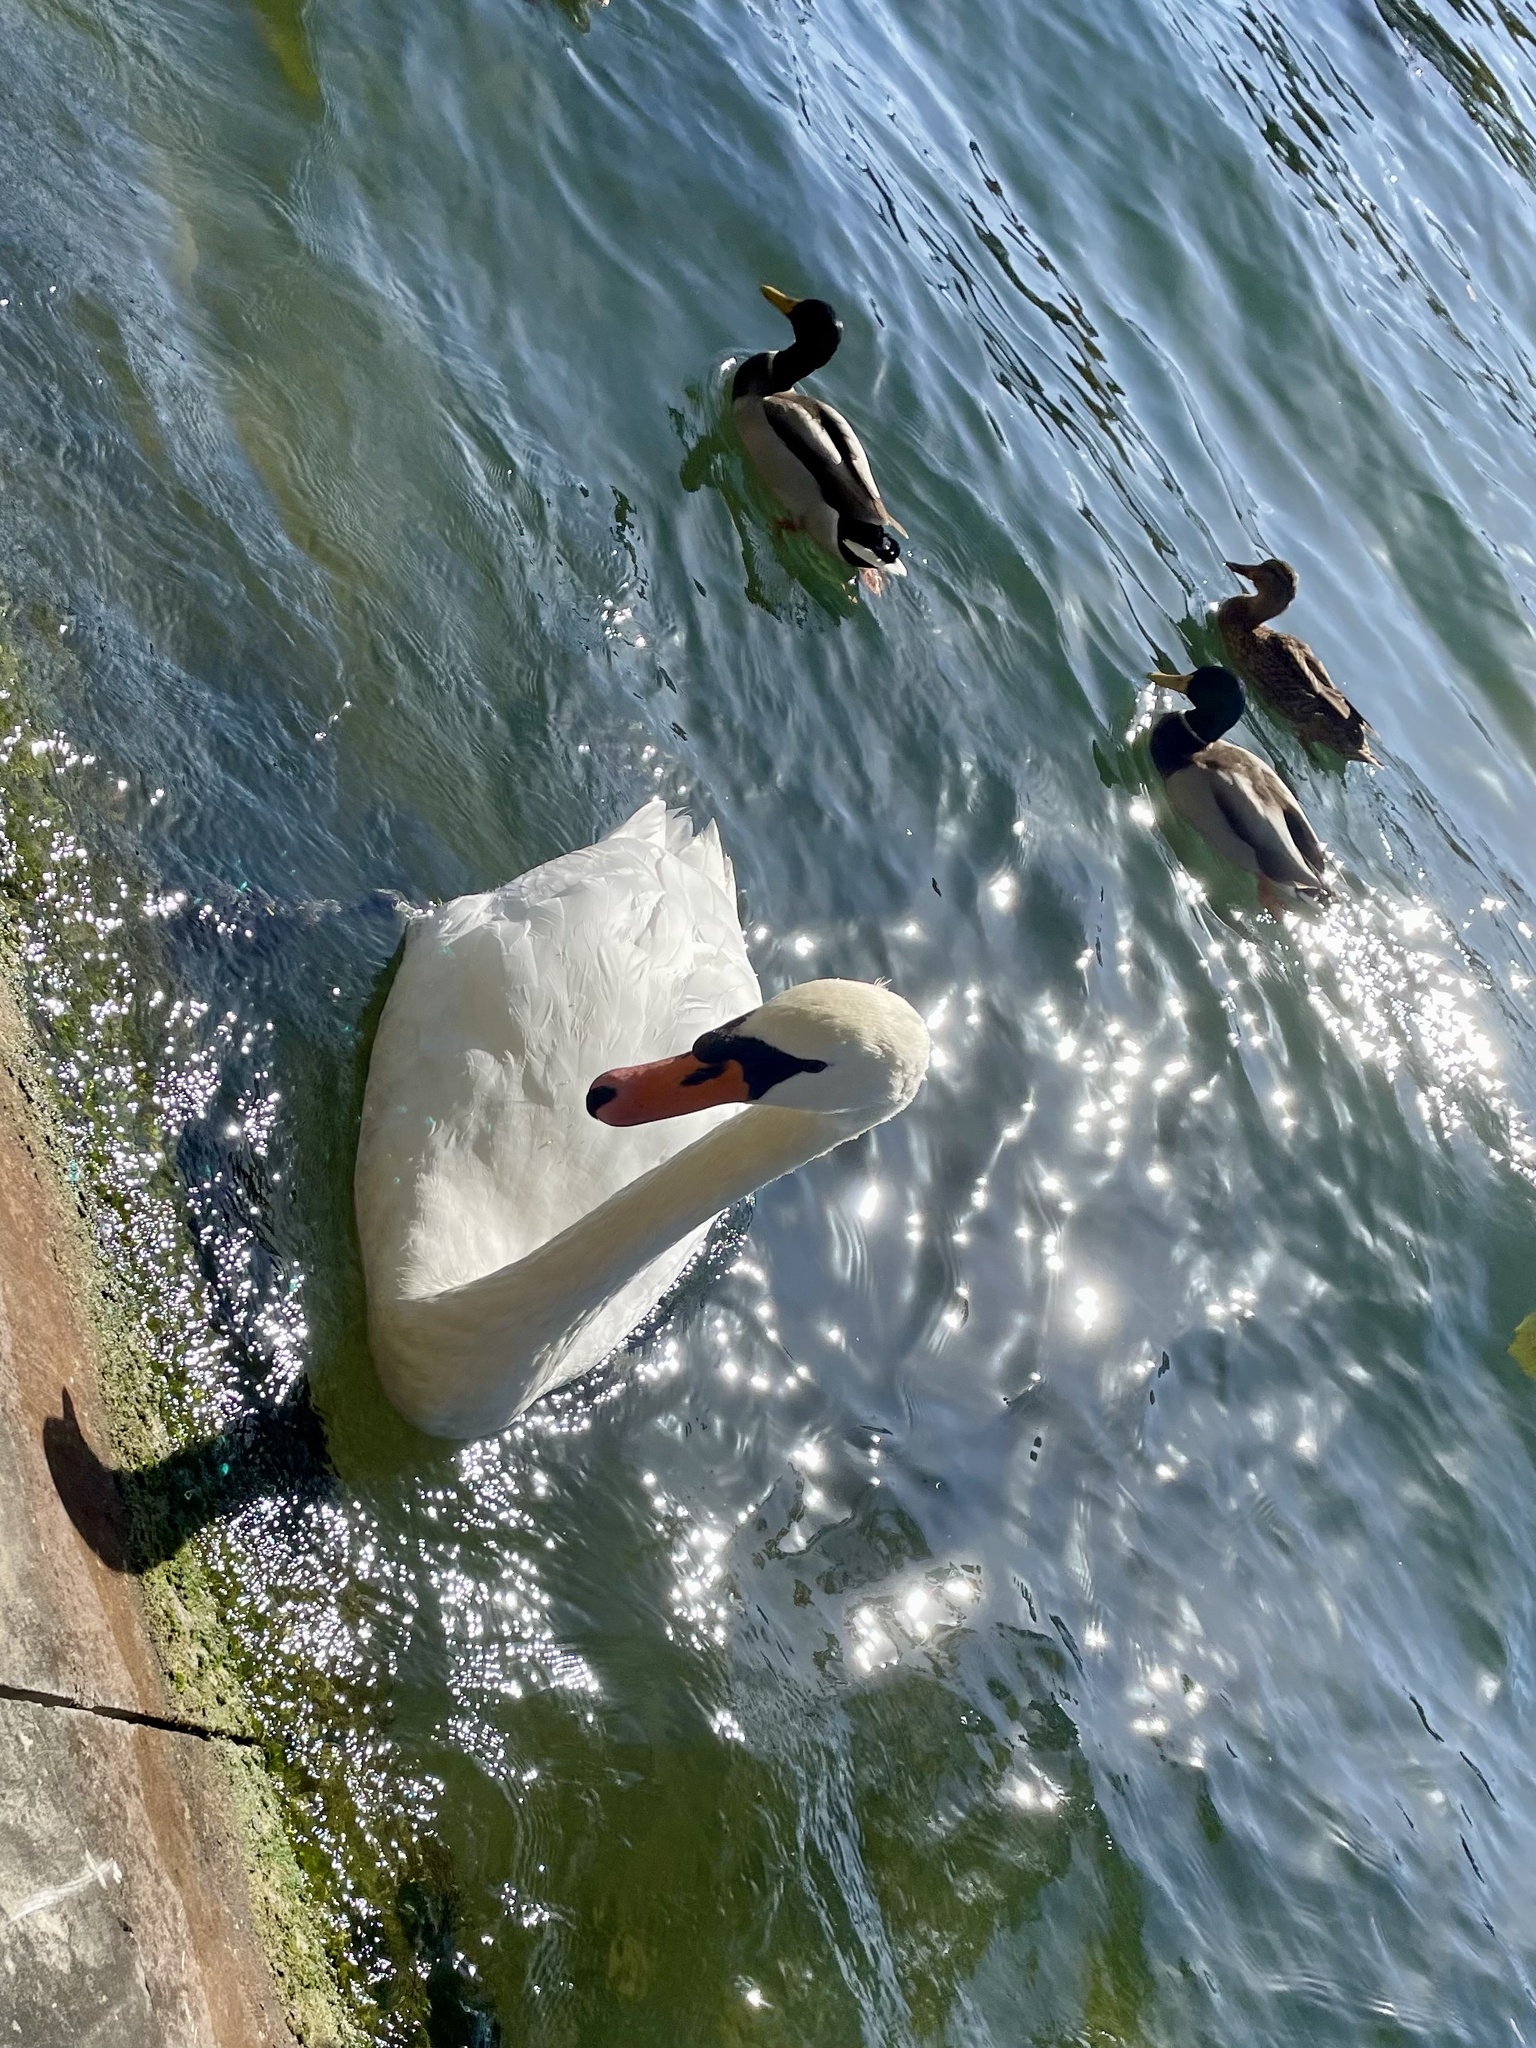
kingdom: Animalia
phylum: Chordata
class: Aves
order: Anseriformes
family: Anatidae
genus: Cygnus
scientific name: Cygnus olor
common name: Mute swan
